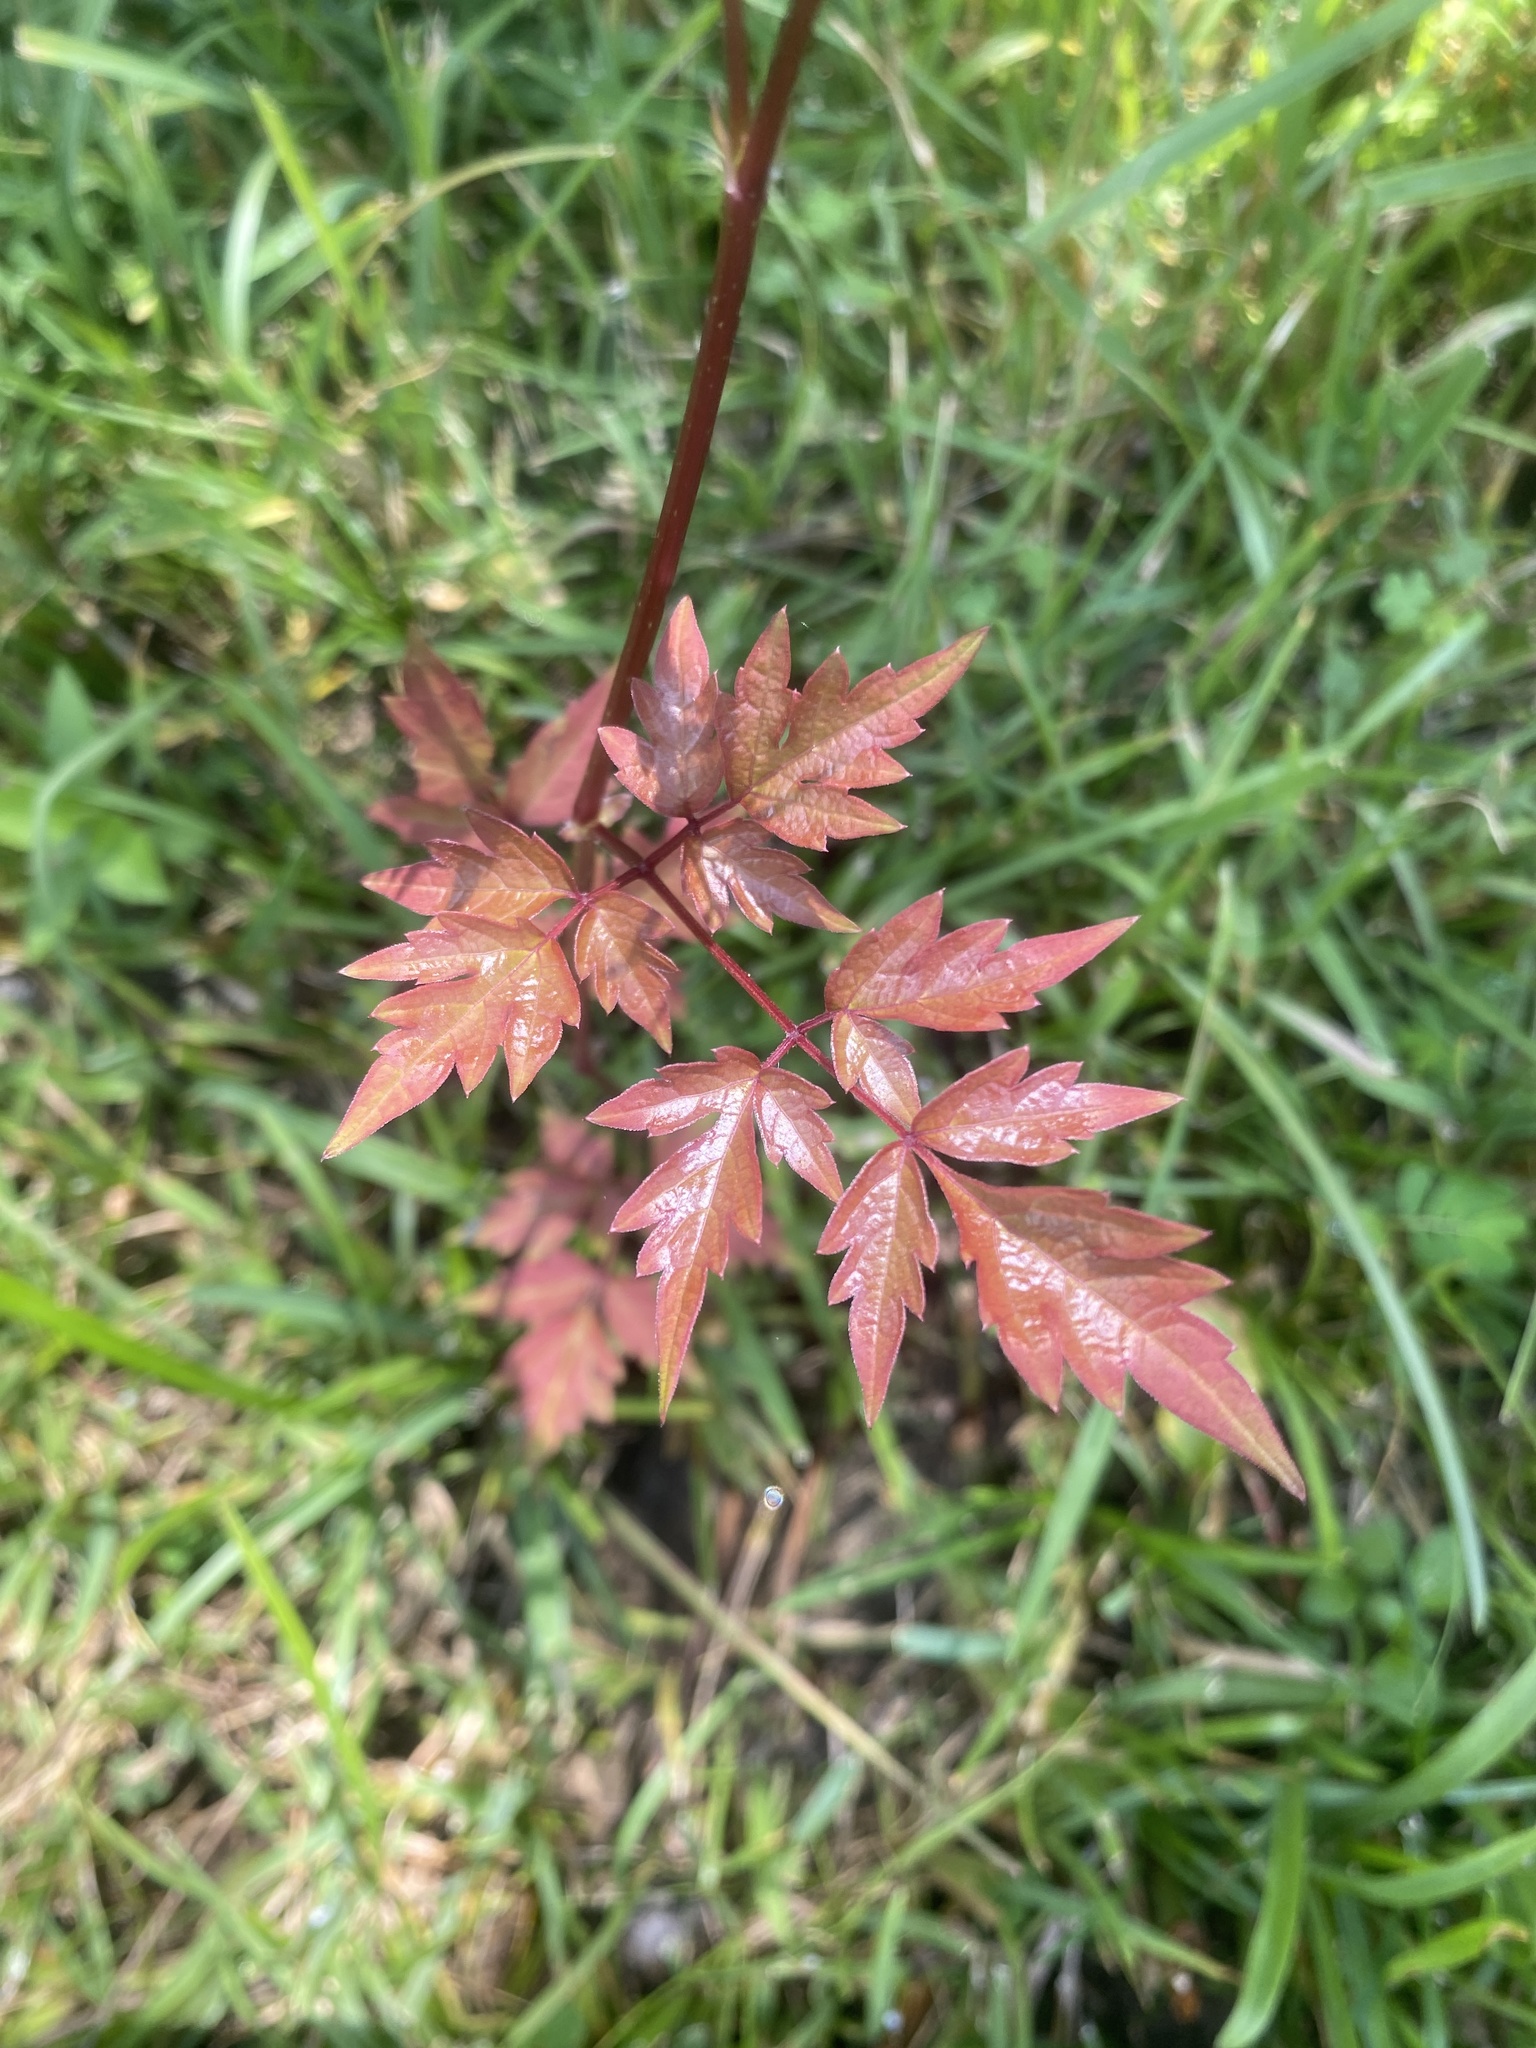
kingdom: Plantae
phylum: Tracheophyta
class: Magnoliopsida
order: Vitales
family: Vitaceae
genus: Nekemias
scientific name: Nekemias arborea
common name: Peppervine
